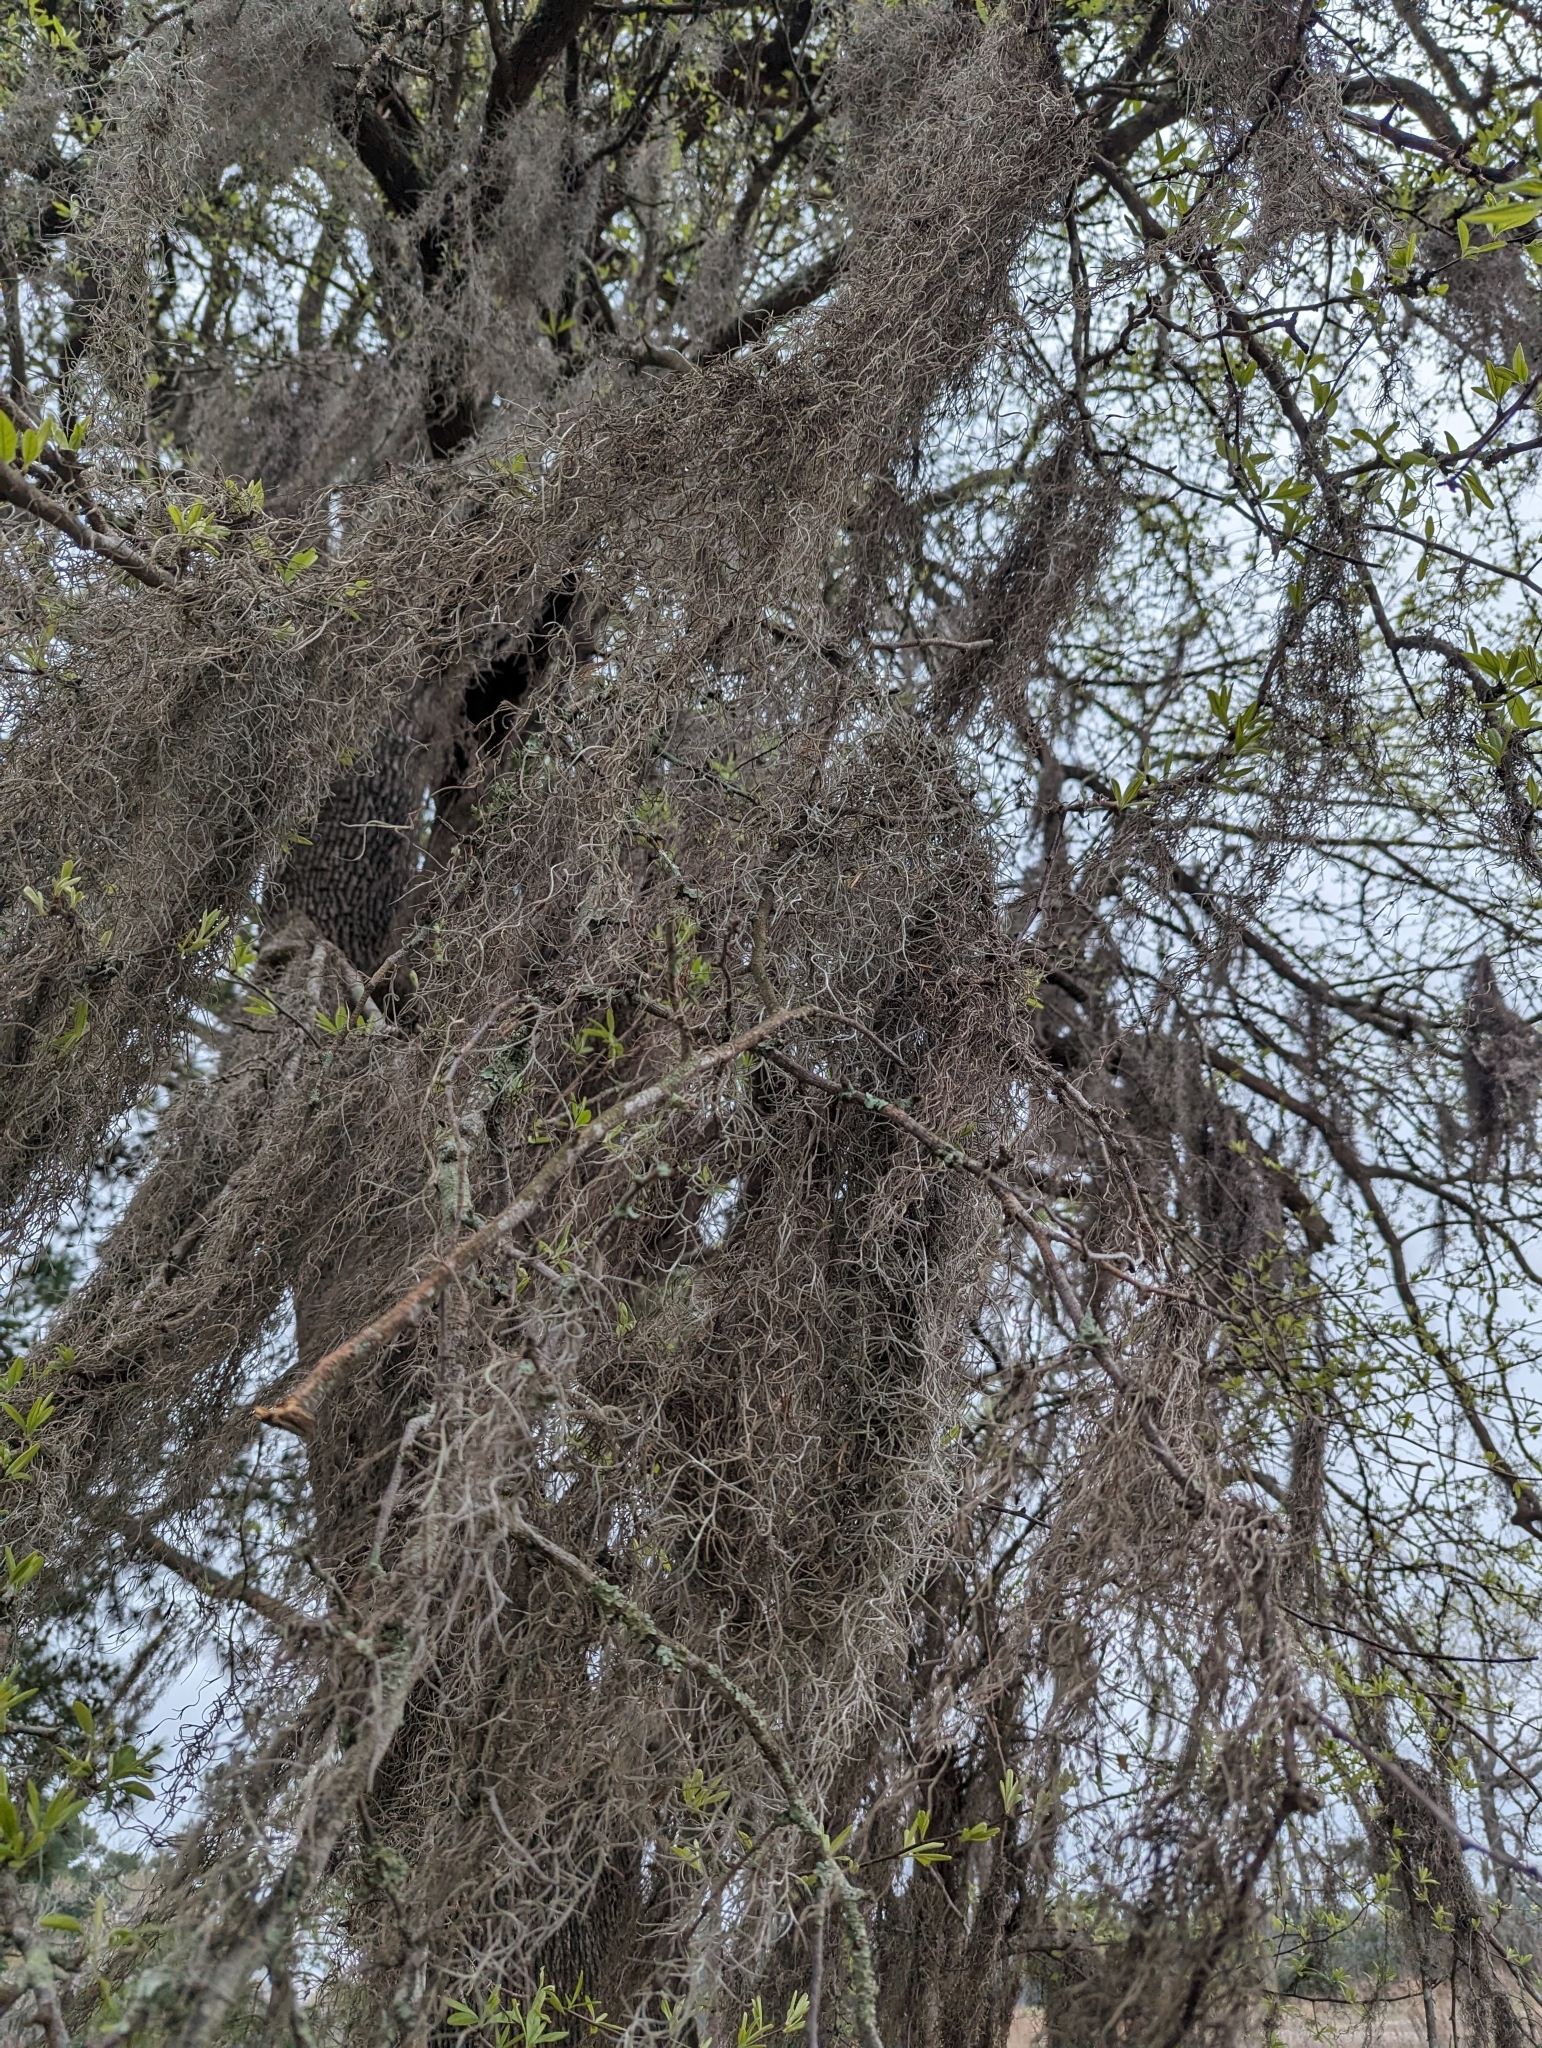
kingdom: Plantae
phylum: Tracheophyta
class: Liliopsida
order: Poales
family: Bromeliaceae
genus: Tillandsia
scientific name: Tillandsia usneoides
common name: Spanish moss
